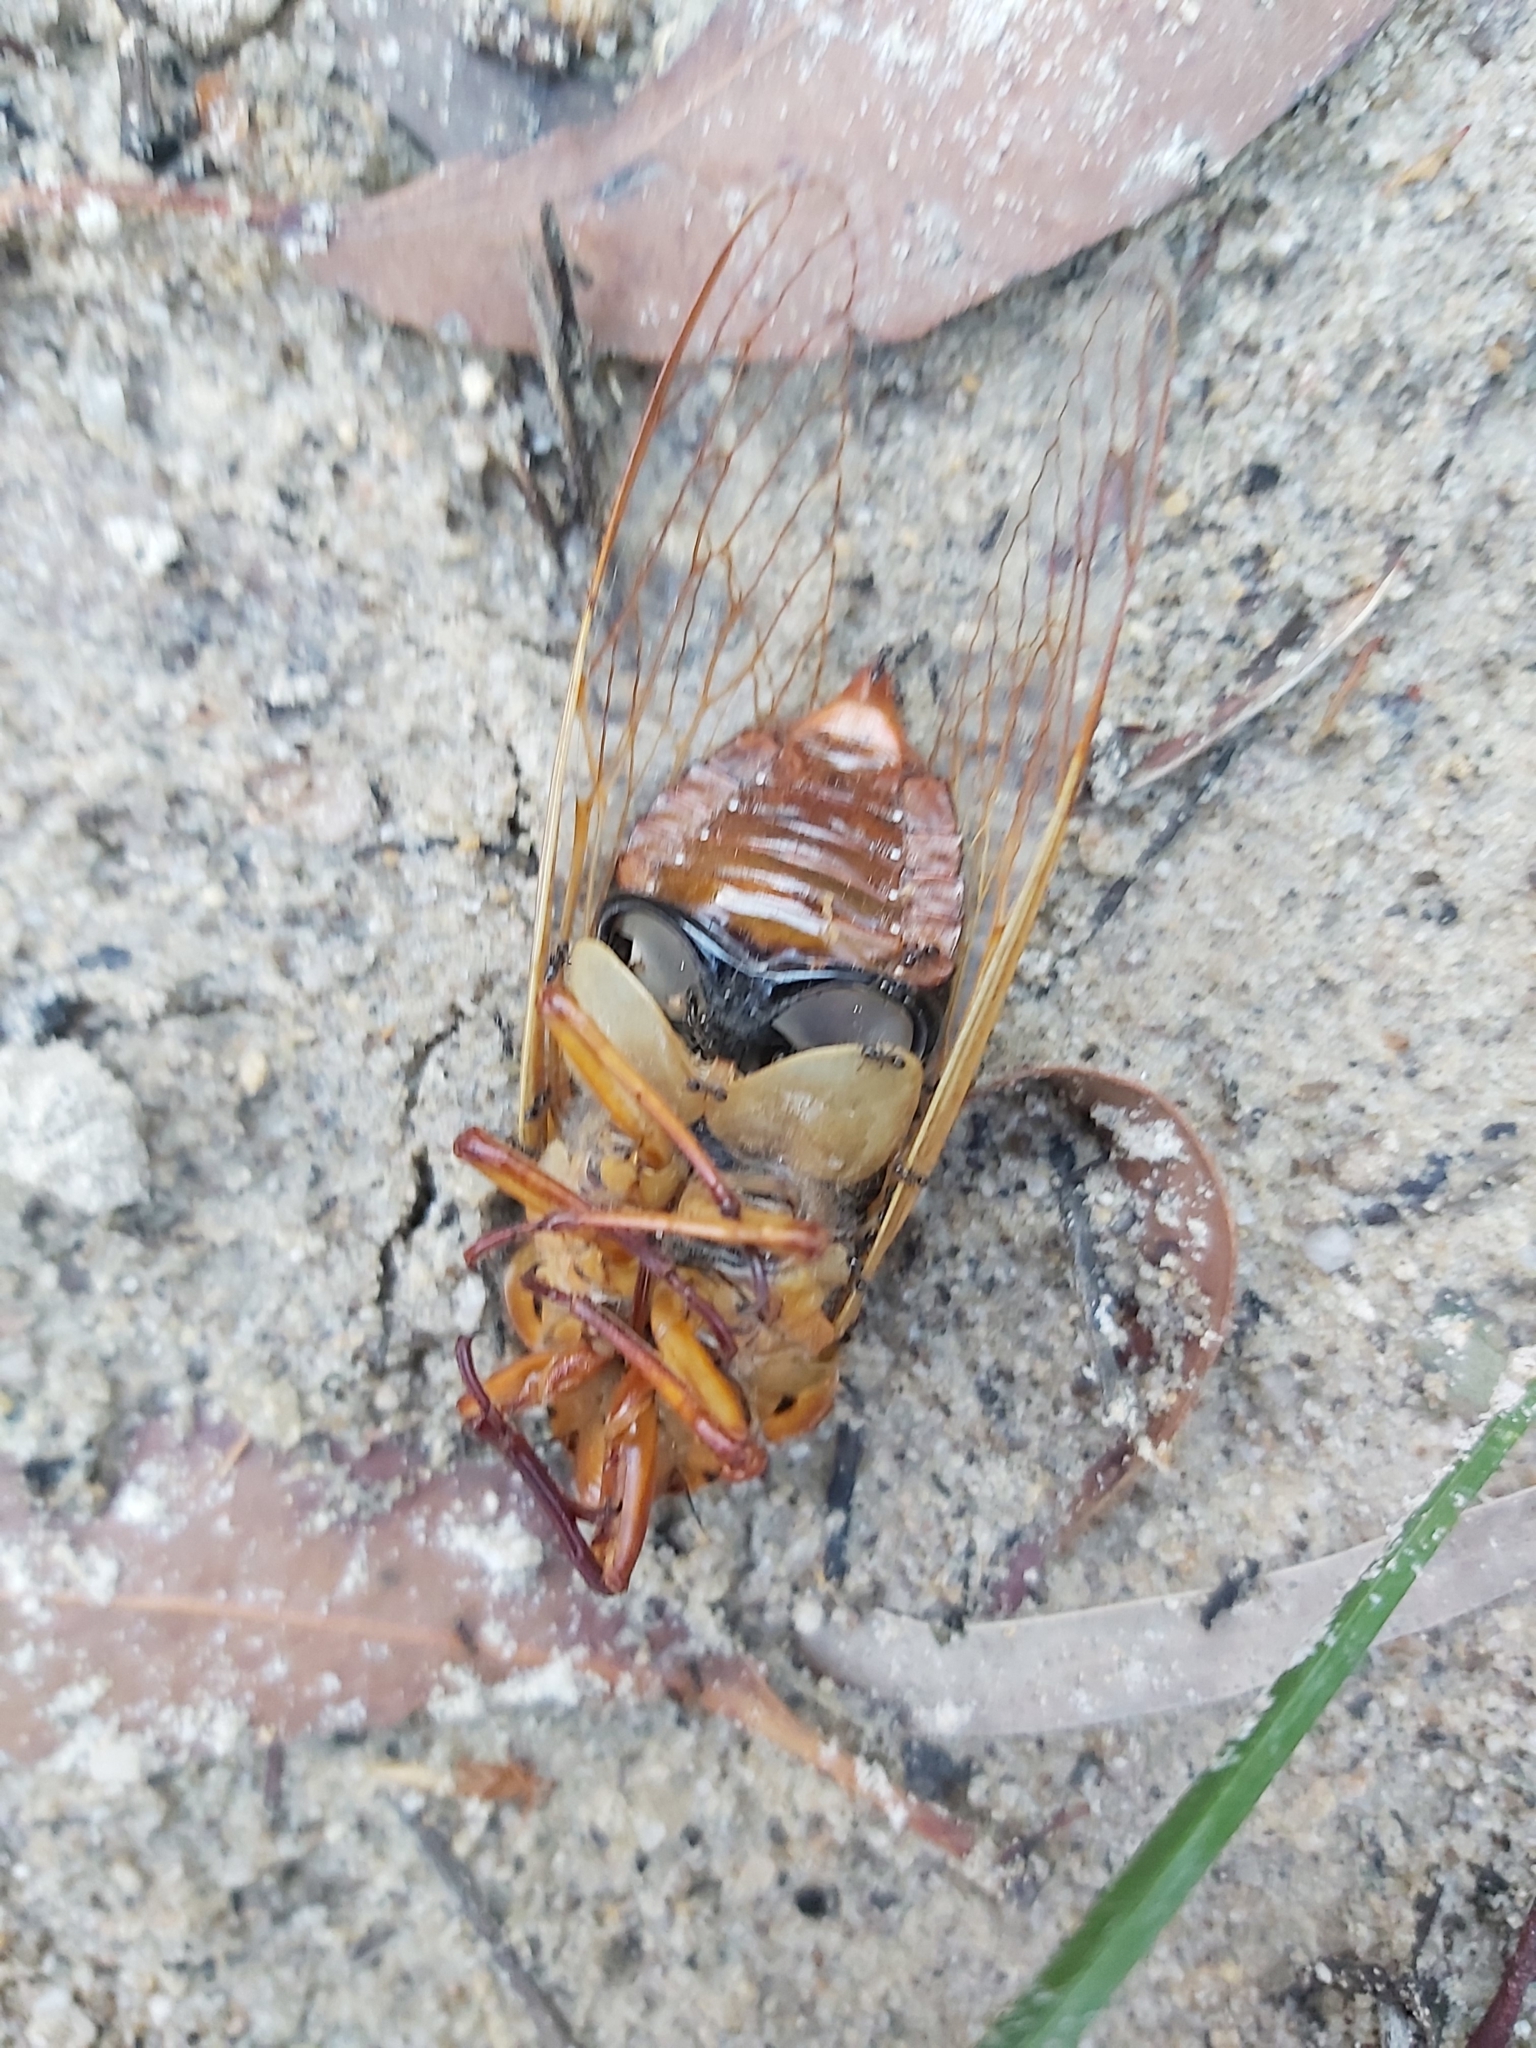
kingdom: Animalia
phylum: Arthropoda
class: Insecta
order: Hemiptera
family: Cicadidae
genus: Cyclochila
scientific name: Cyclochila australasiae
